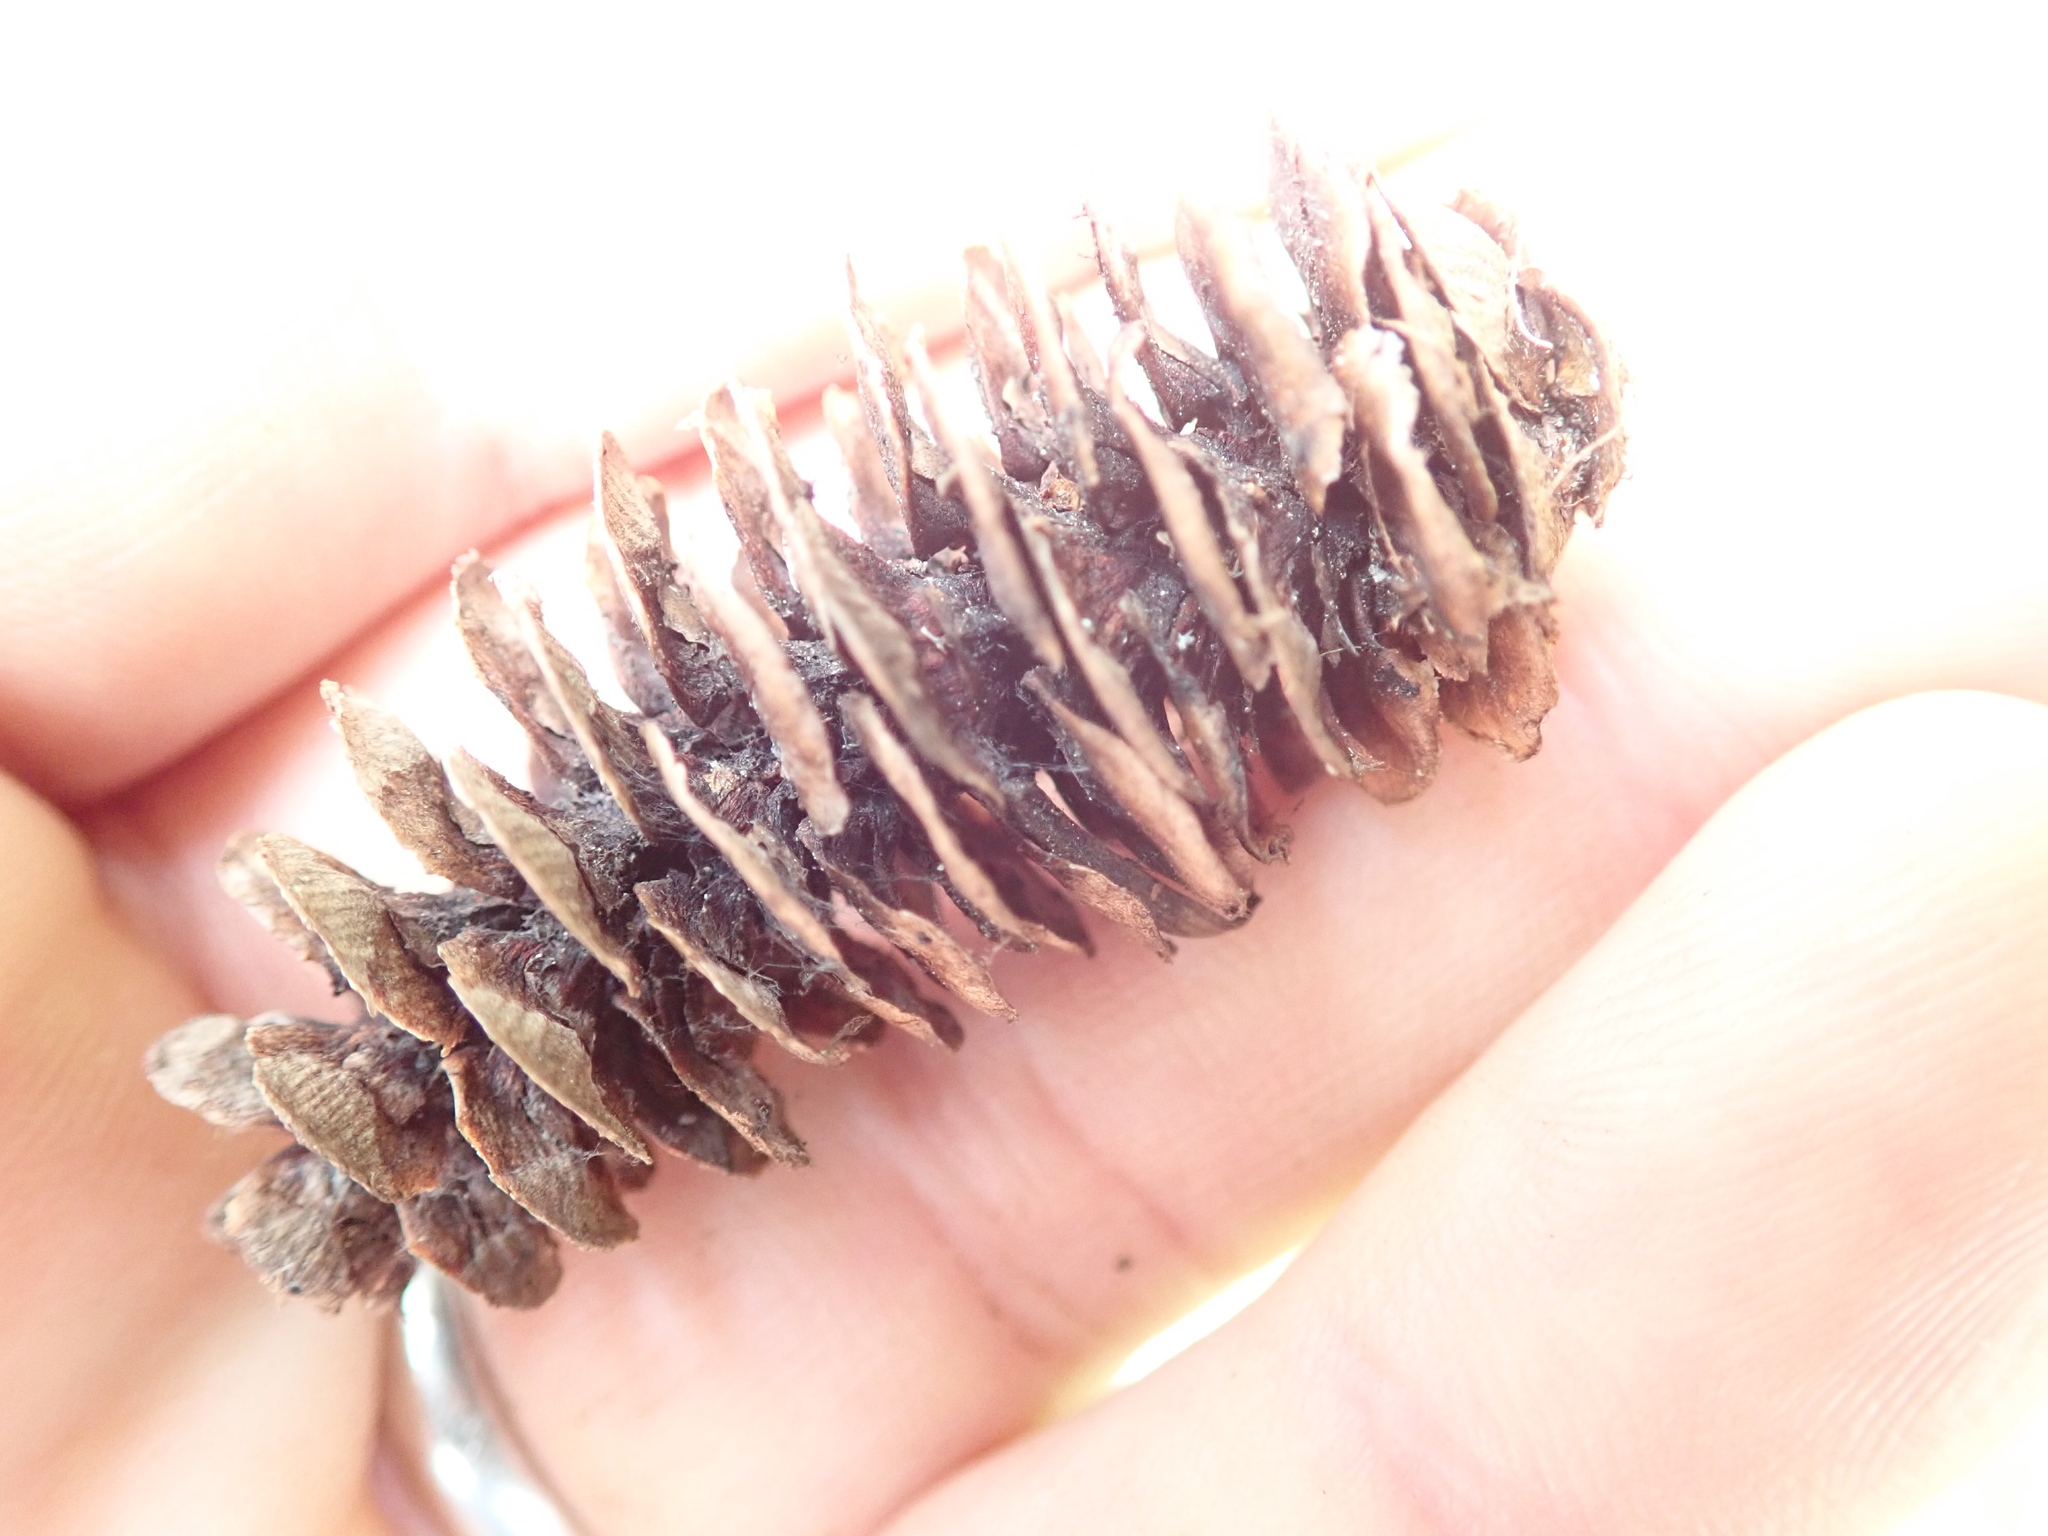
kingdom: Plantae
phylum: Tracheophyta
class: Pinopsida
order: Pinales
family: Pinaceae
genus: Tsuga
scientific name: Tsuga mertensiana
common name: Mountain hemlock
